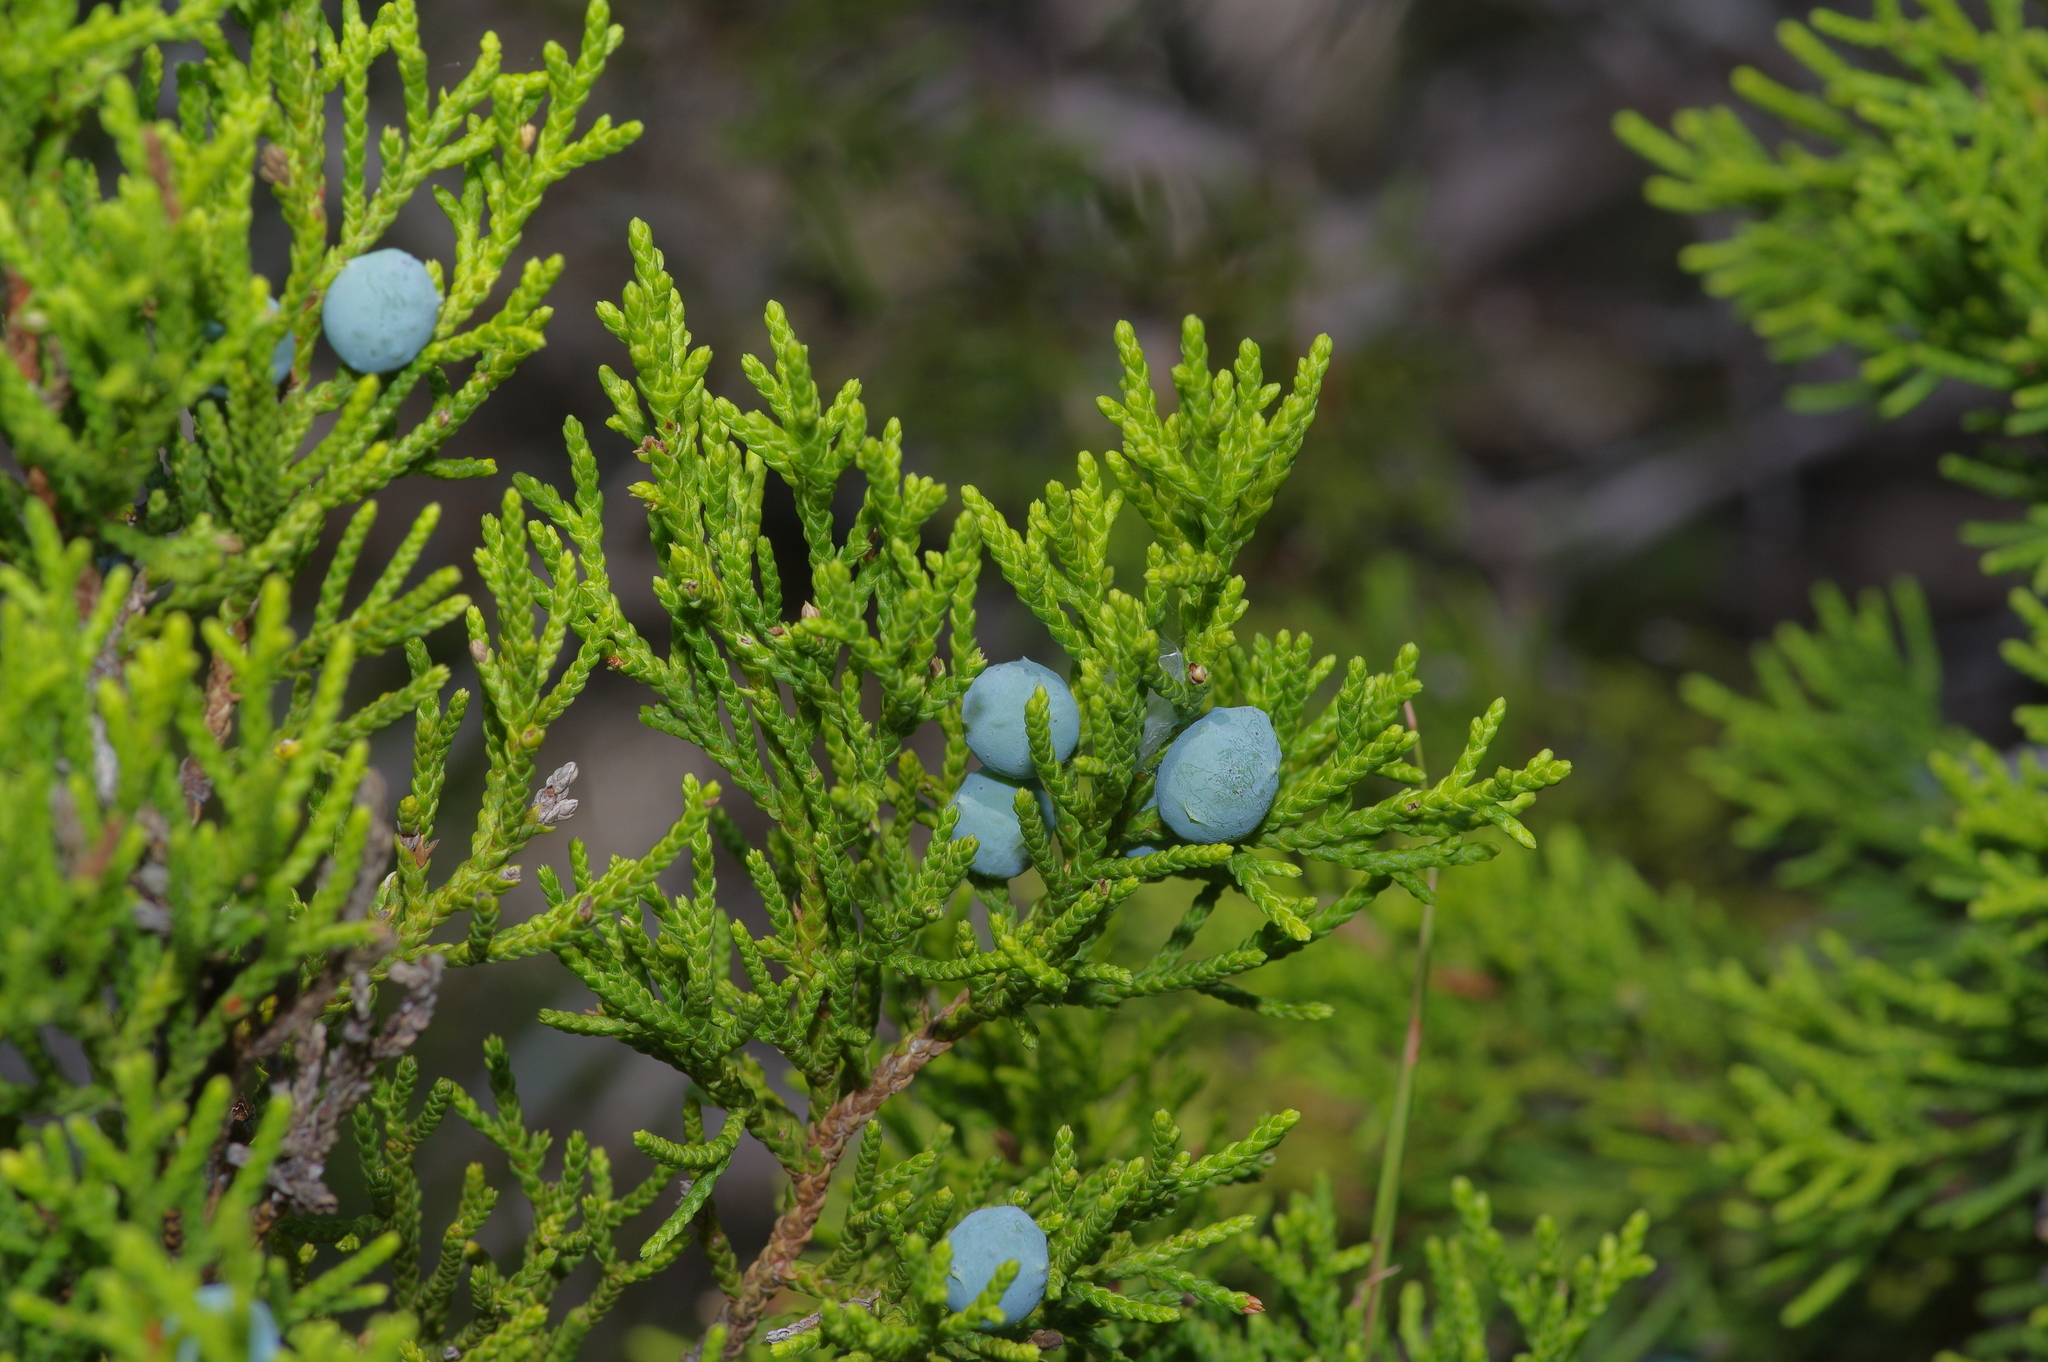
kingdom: Plantae
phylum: Tracheophyta
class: Pinopsida
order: Pinales
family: Cupressaceae
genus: Juniperus
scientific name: Juniperus ashei
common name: Mexican juniper
